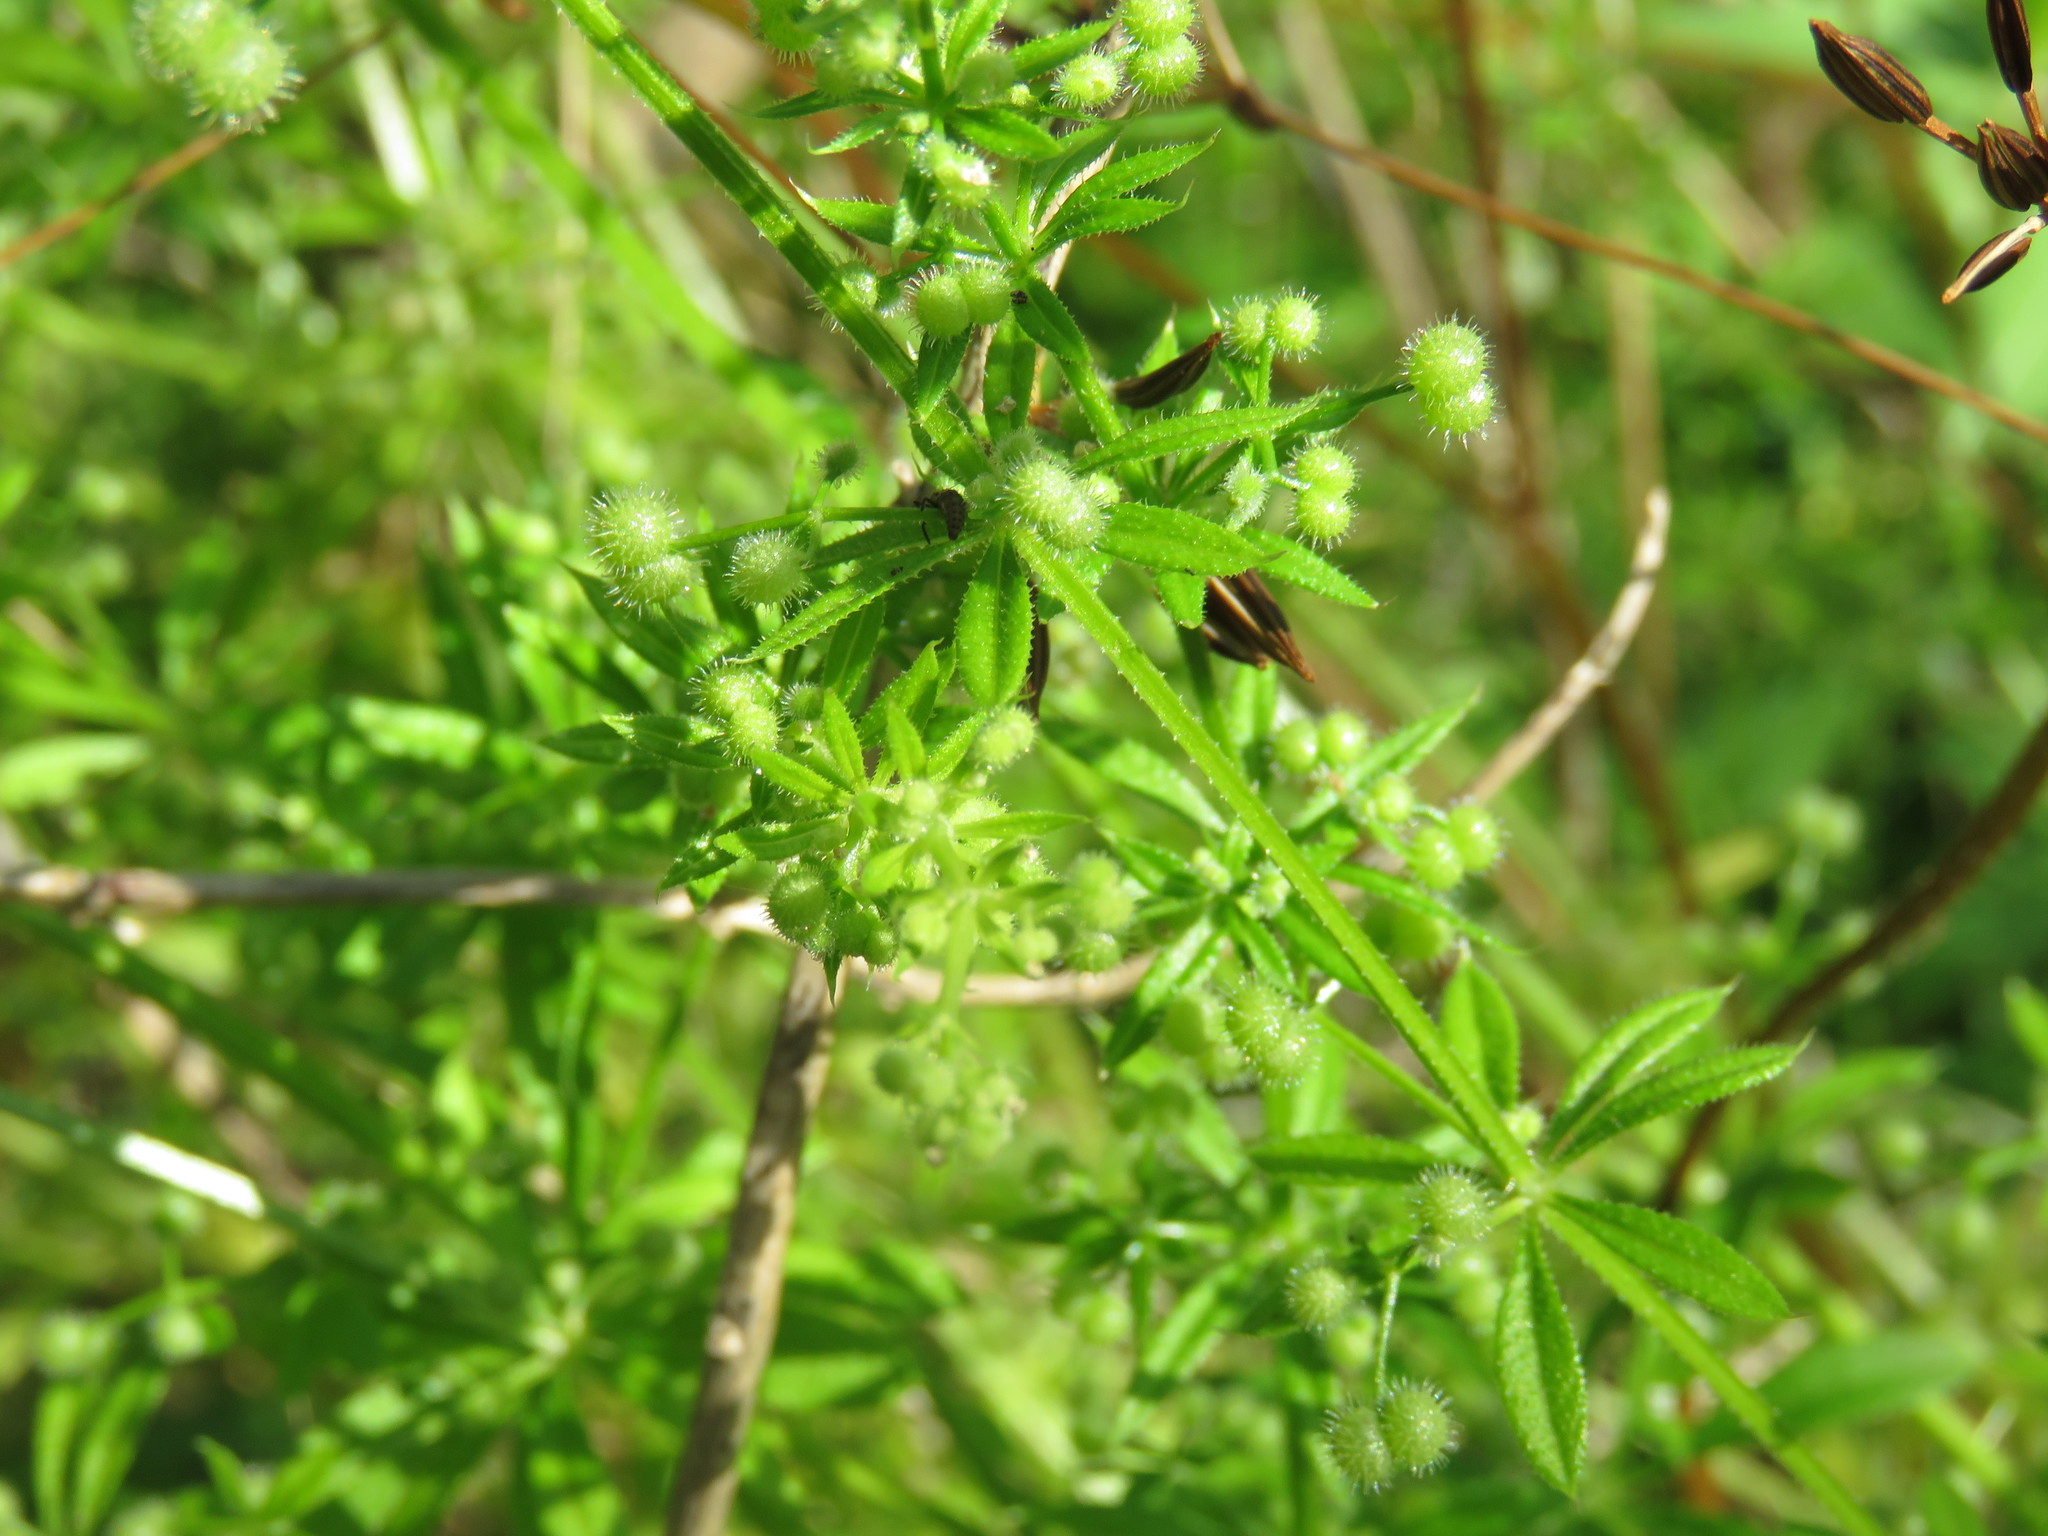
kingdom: Plantae
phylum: Tracheophyta
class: Magnoliopsida
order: Gentianales
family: Rubiaceae
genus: Galium
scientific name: Galium aparine
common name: Cleavers
